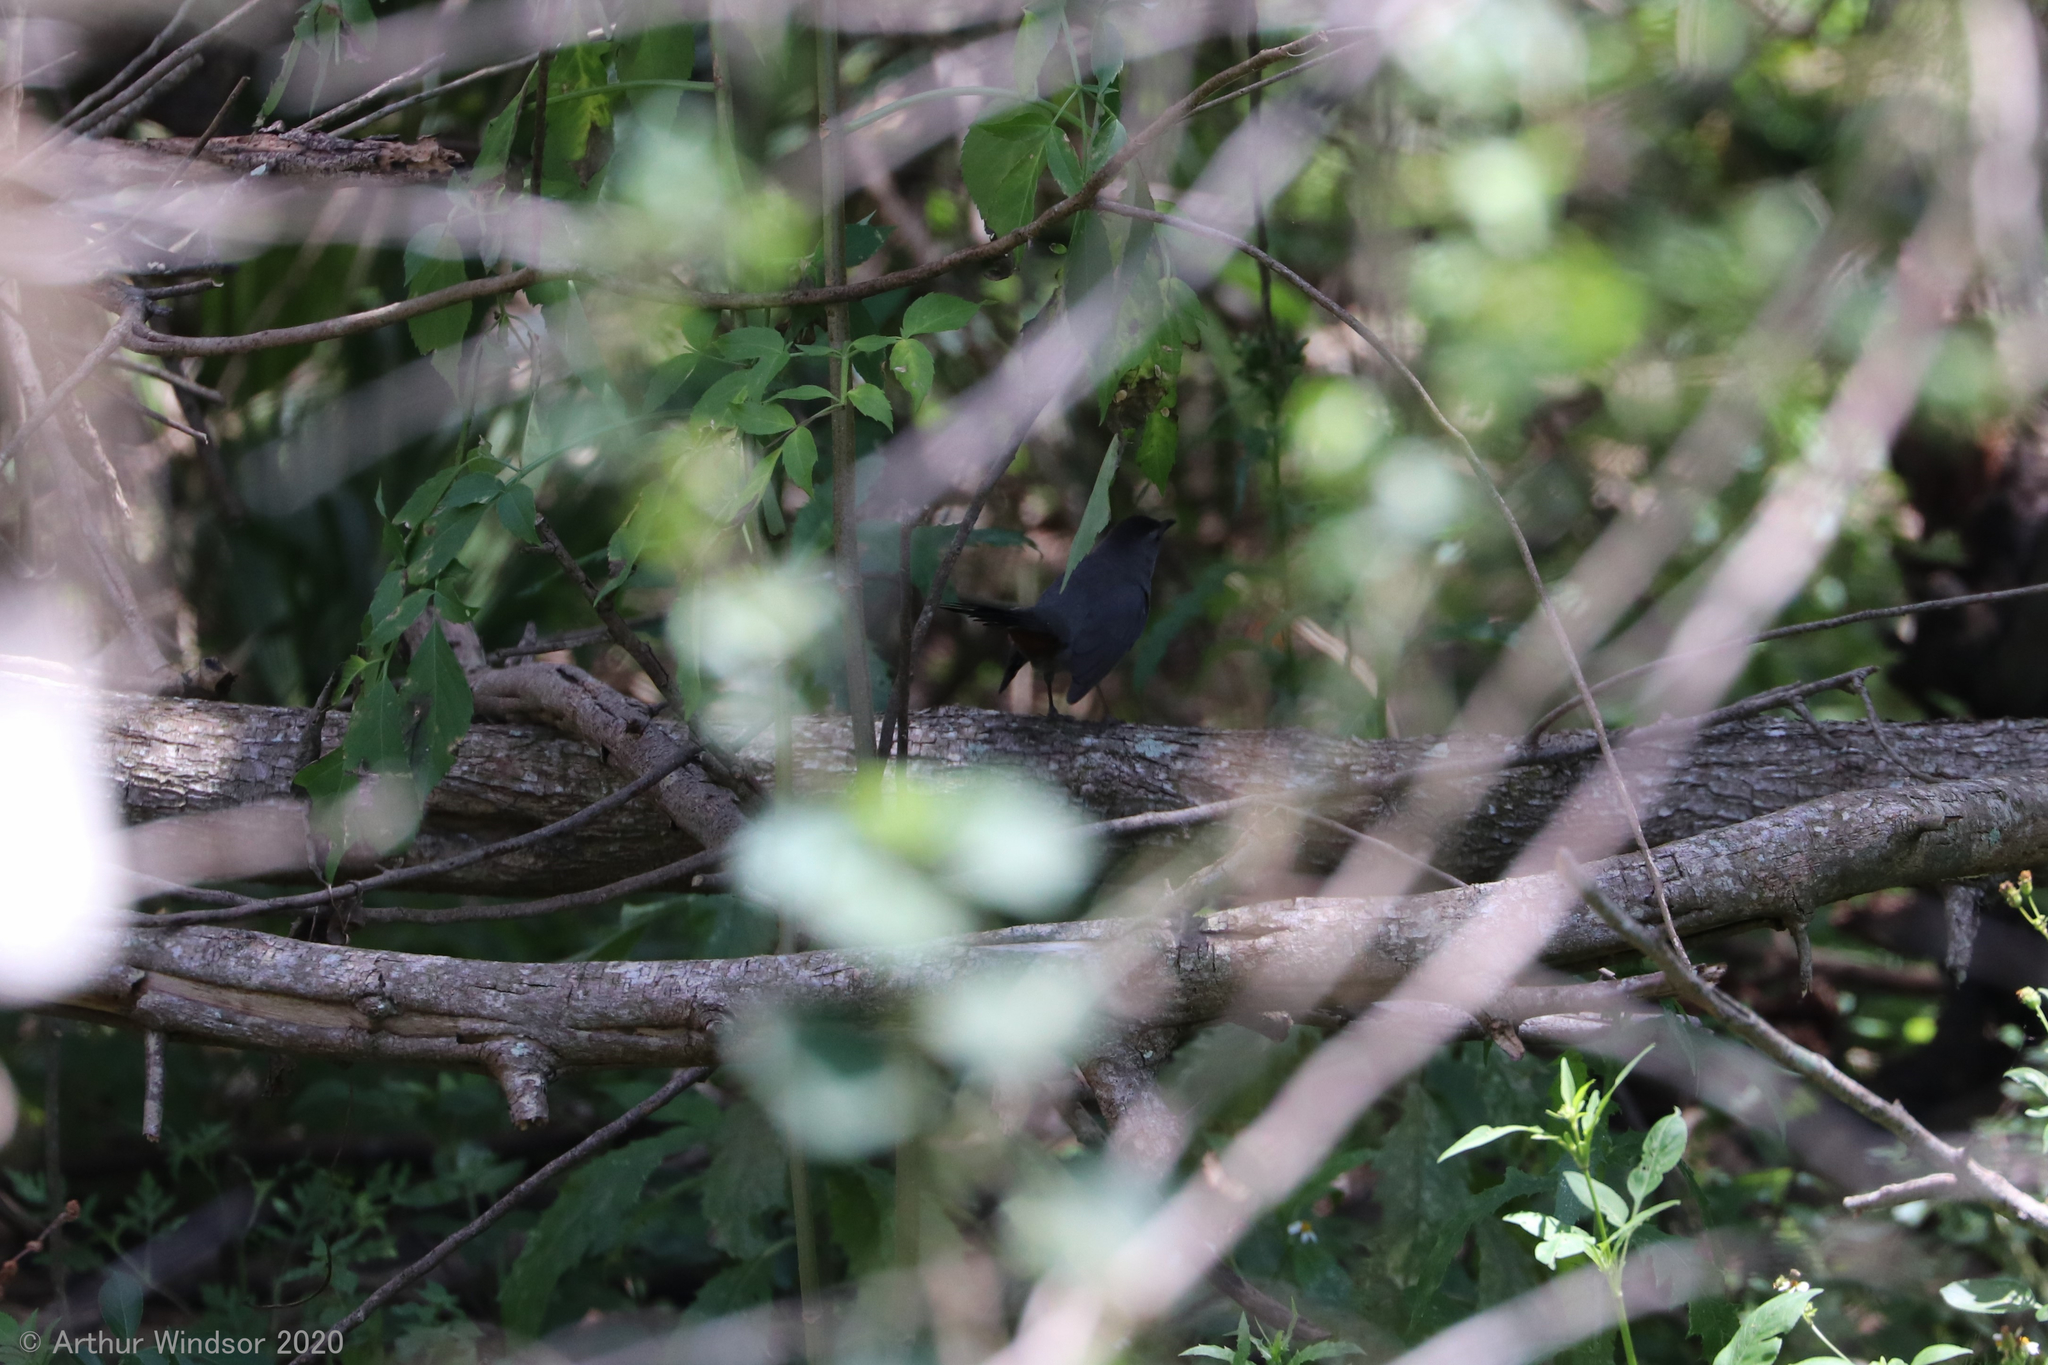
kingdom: Animalia
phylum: Chordata
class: Aves
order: Passeriformes
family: Mimidae
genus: Dumetella
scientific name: Dumetella carolinensis
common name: Gray catbird
